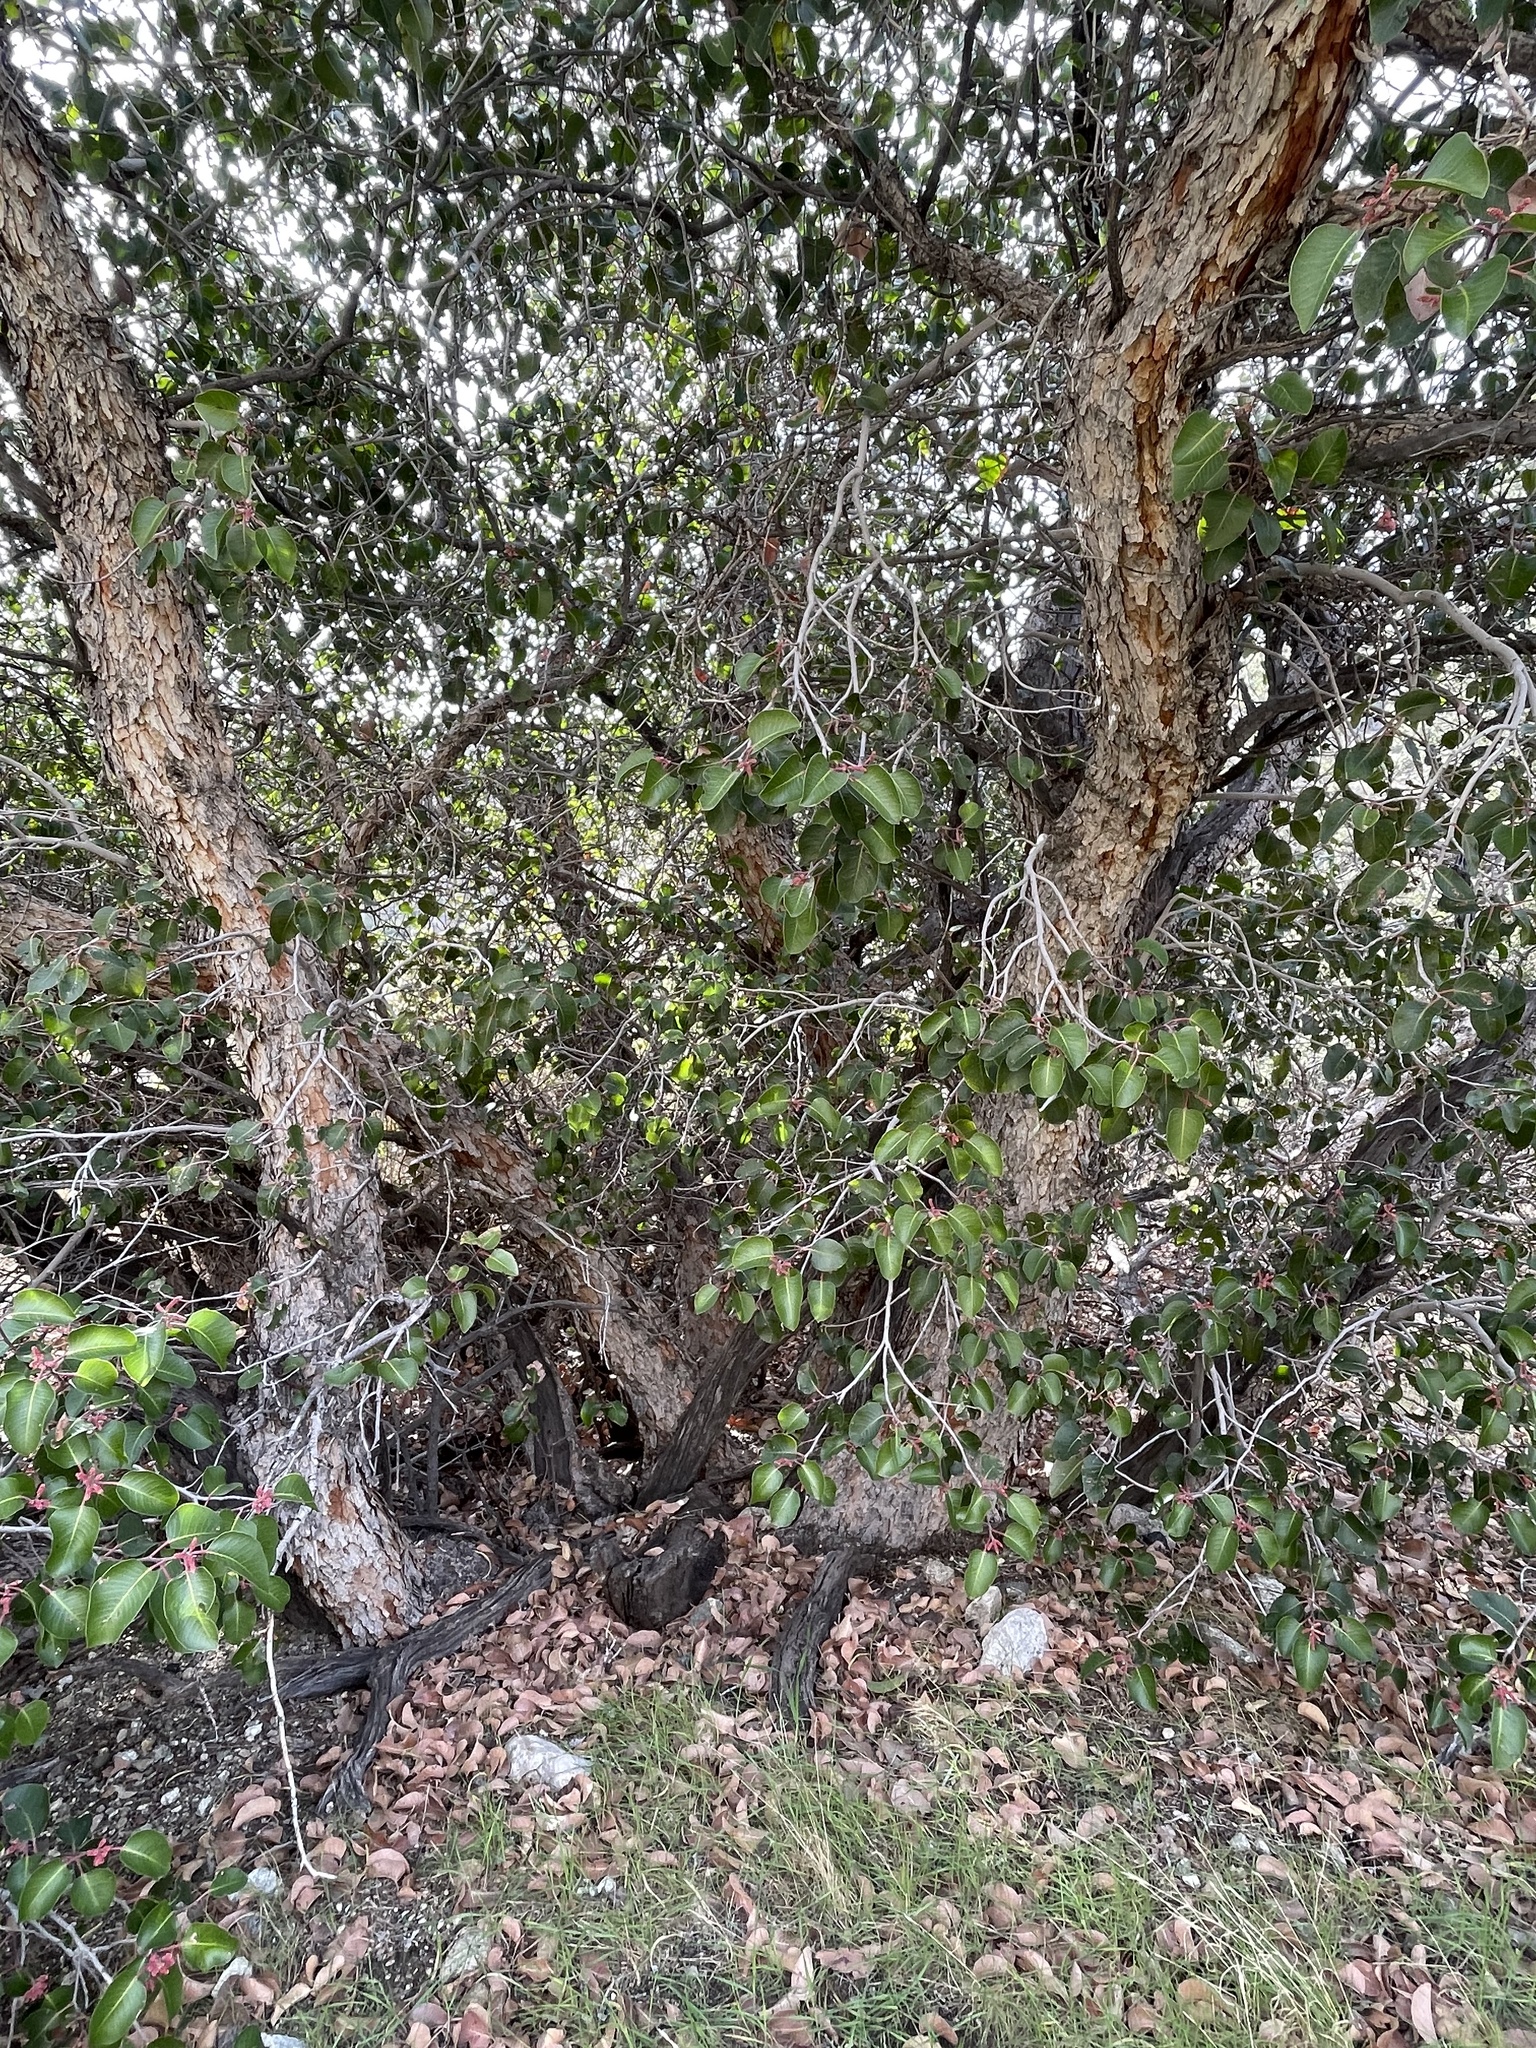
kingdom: Plantae
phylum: Tracheophyta
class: Magnoliopsida
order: Sapindales
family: Anacardiaceae
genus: Rhus
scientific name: Rhus ovata
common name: Sugar sumac
